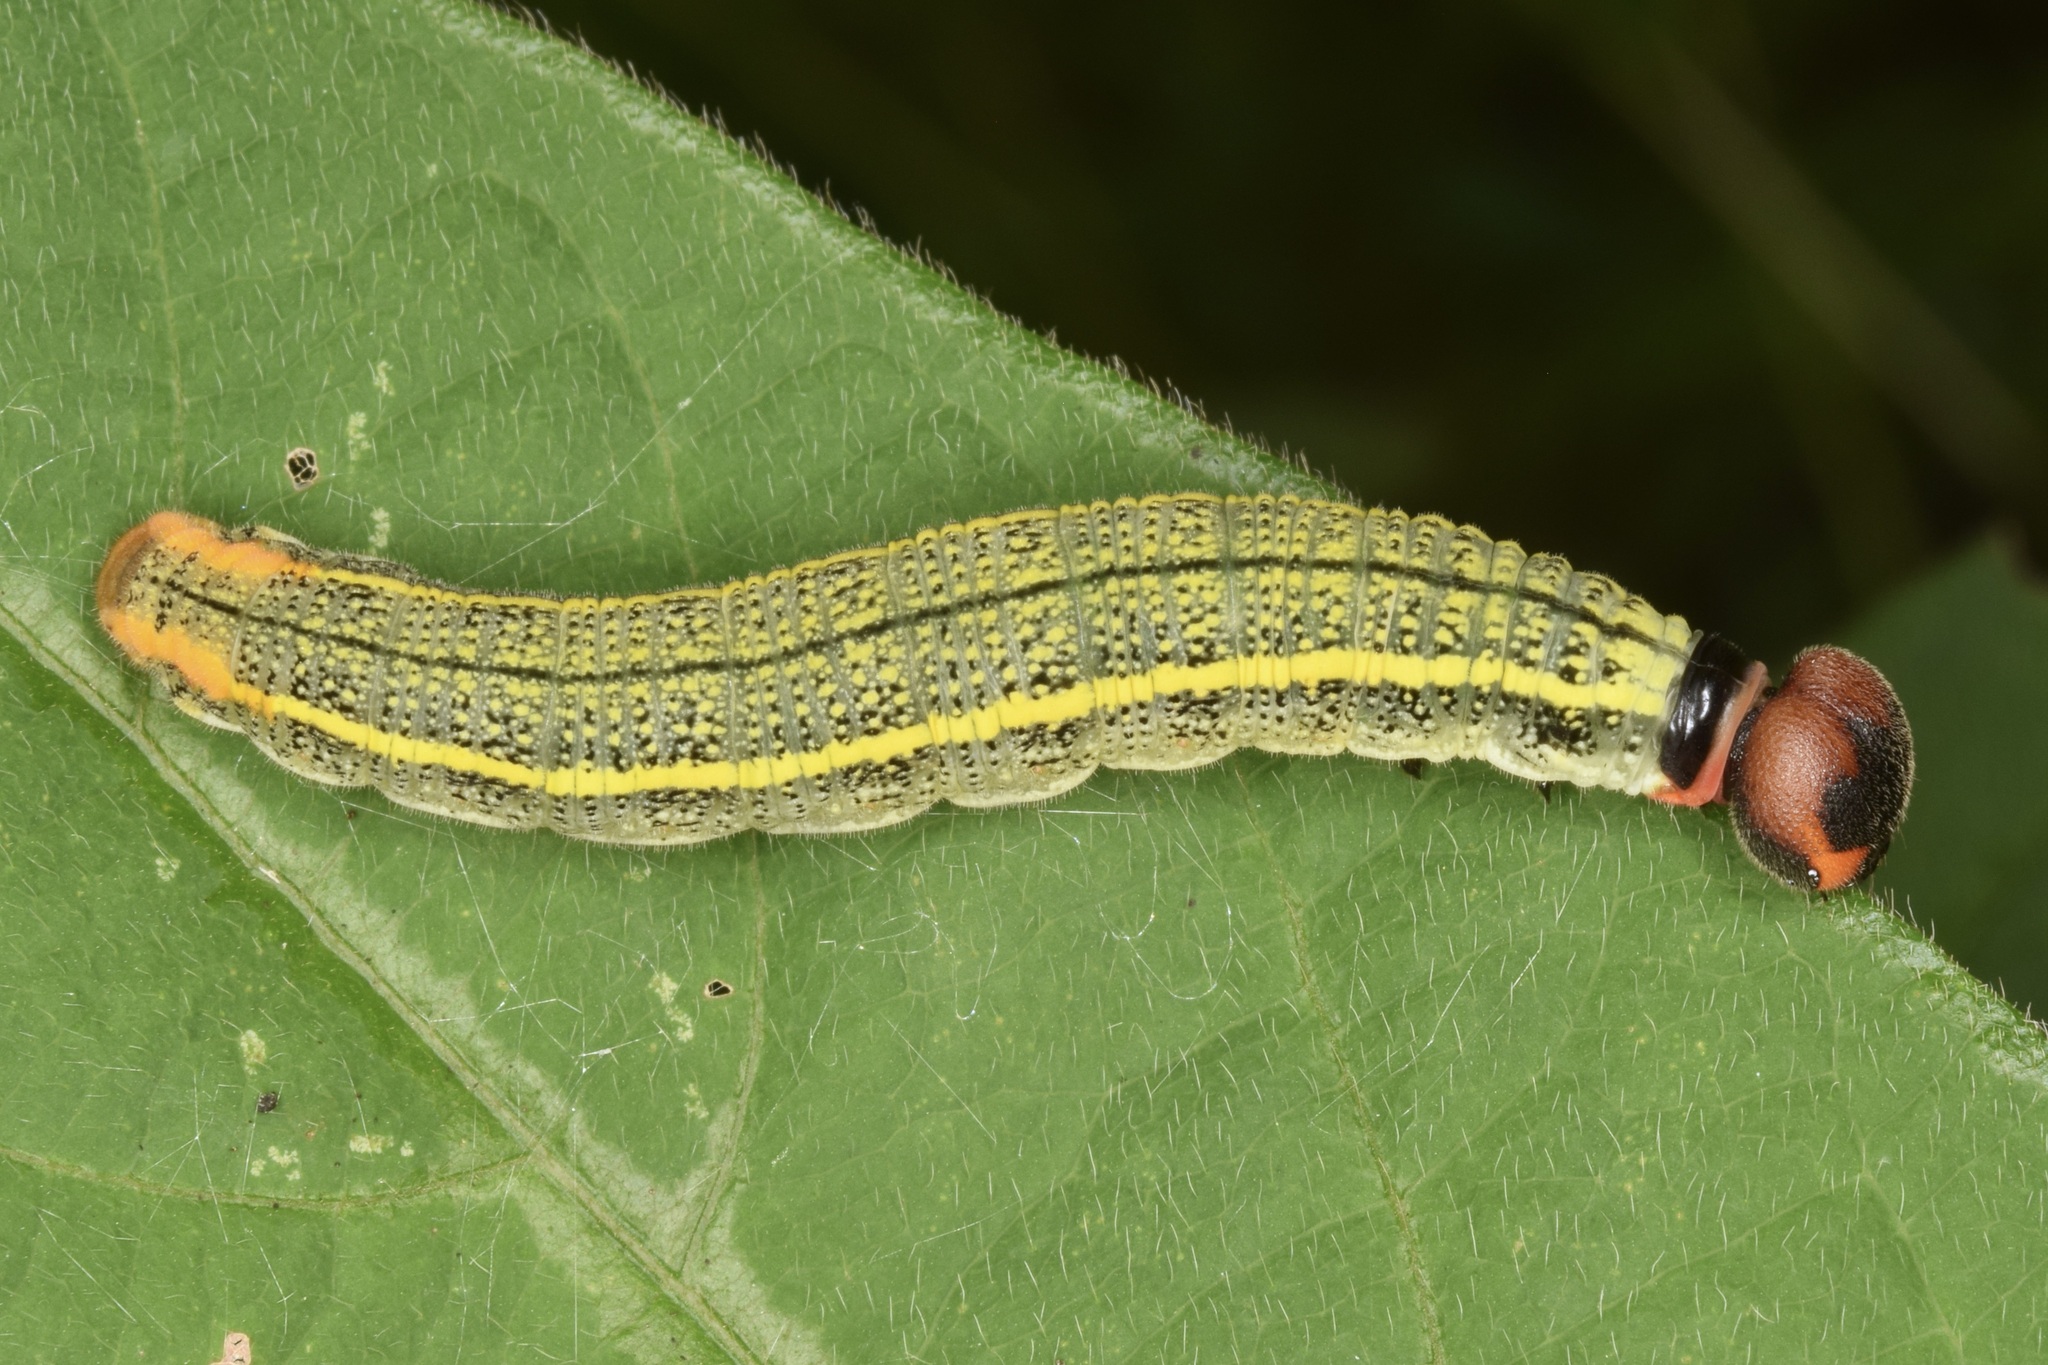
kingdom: Animalia
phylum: Arthropoda
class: Insecta
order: Lepidoptera
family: Hesperiidae
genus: Urbanus
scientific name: Urbanus proteus
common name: Long-tailed skipper
